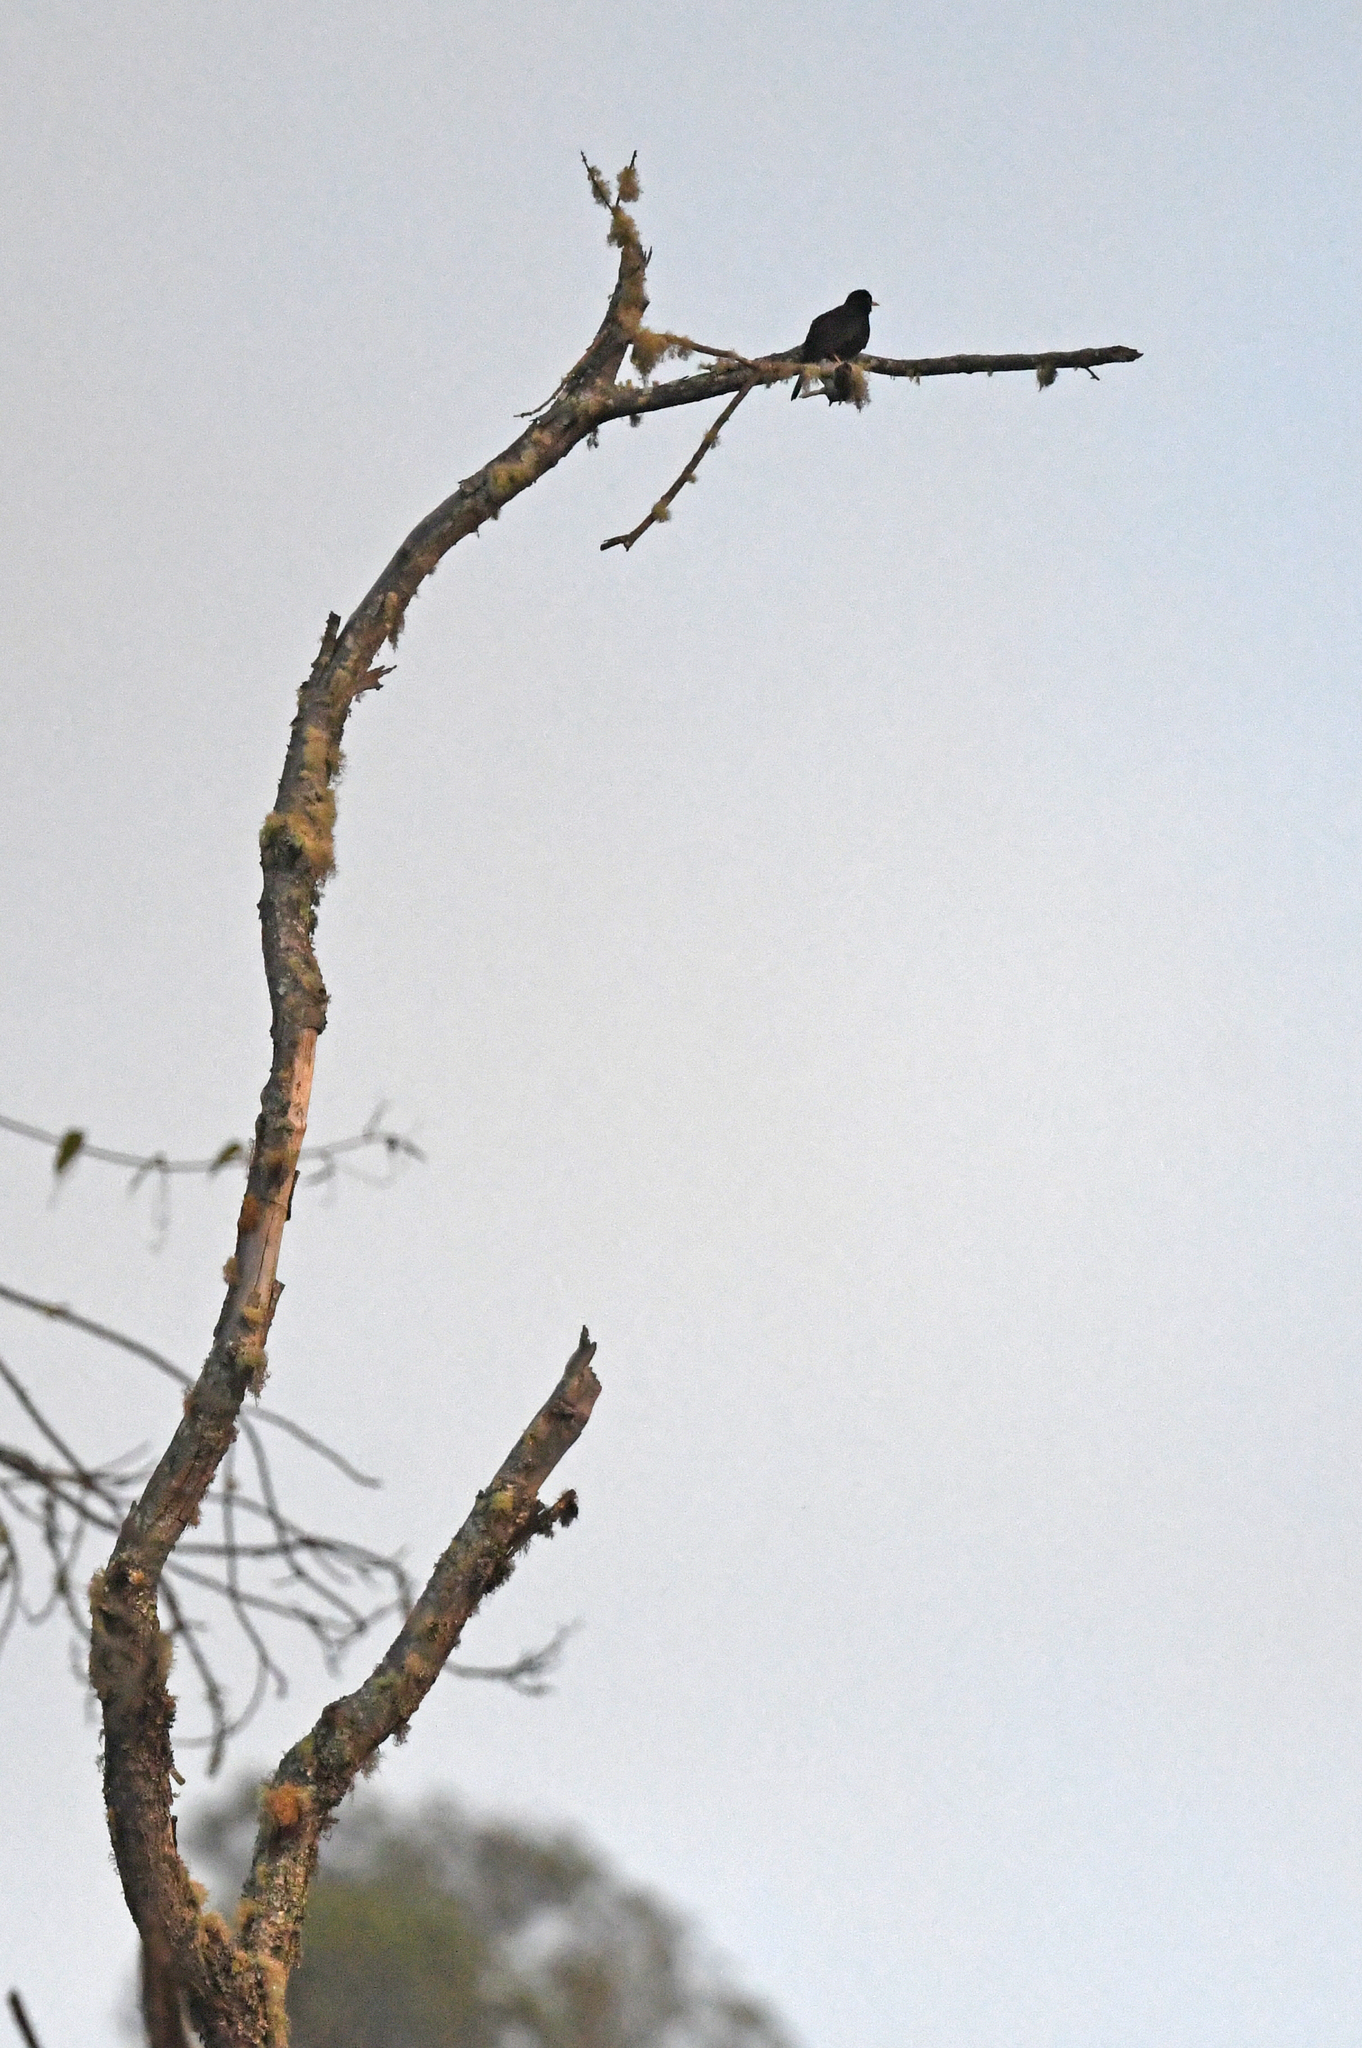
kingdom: Animalia
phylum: Chordata
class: Aves
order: Passeriformes
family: Turdidae
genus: Turdus
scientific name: Turdus serranus
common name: Glossy-black thrush
